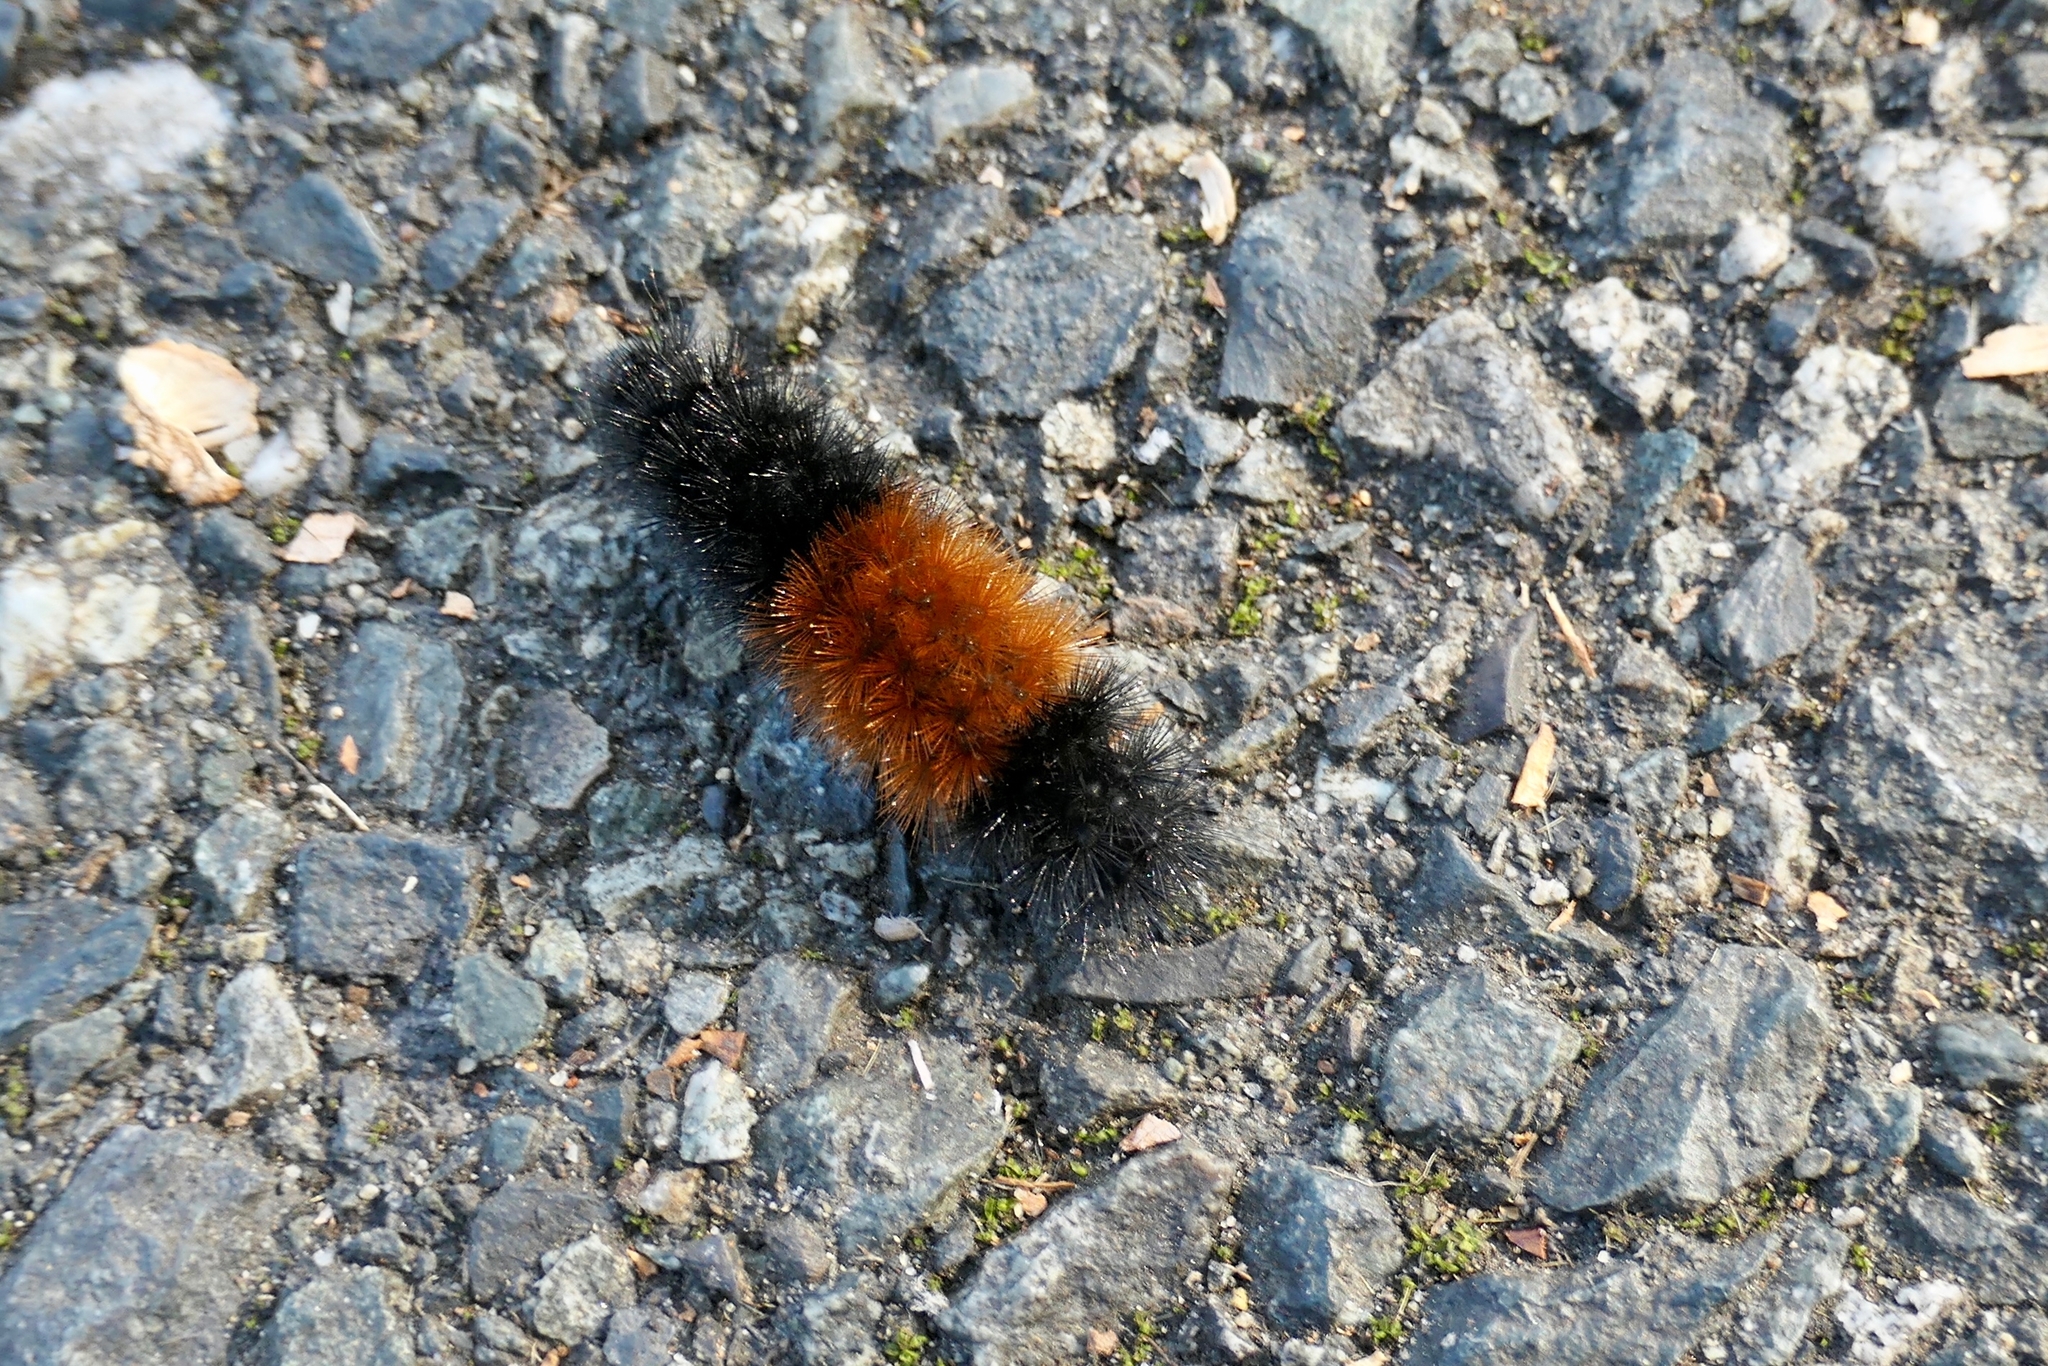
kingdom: Animalia
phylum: Arthropoda
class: Insecta
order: Lepidoptera
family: Erebidae
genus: Pyrrharctia
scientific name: Pyrrharctia isabella
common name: Isabella tiger moth
